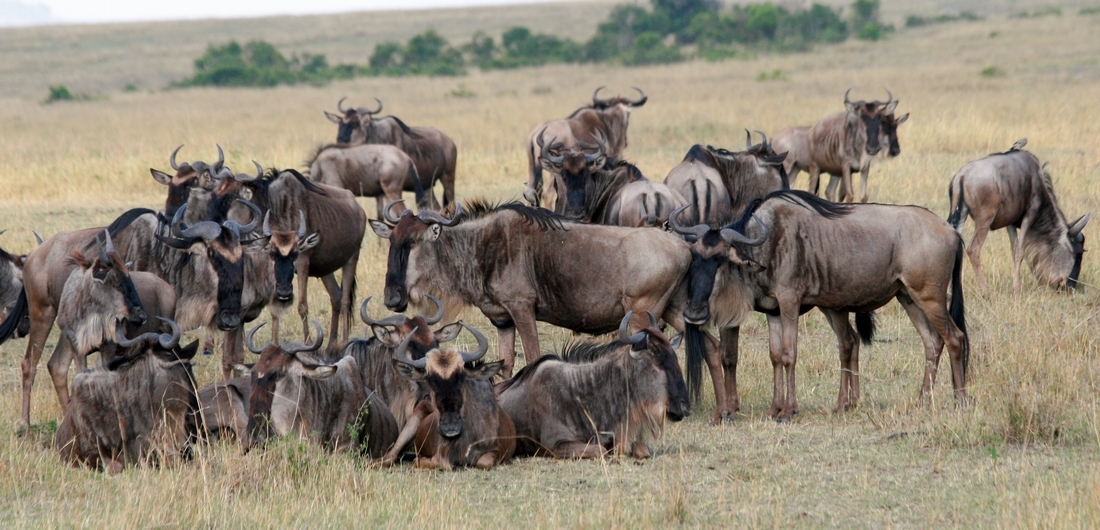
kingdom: Animalia
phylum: Chordata
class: Mammalia
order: Artiodactyla
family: Bovidae
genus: Connochaetes
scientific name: Connochaetes taurinus
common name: Blue wildebeest
